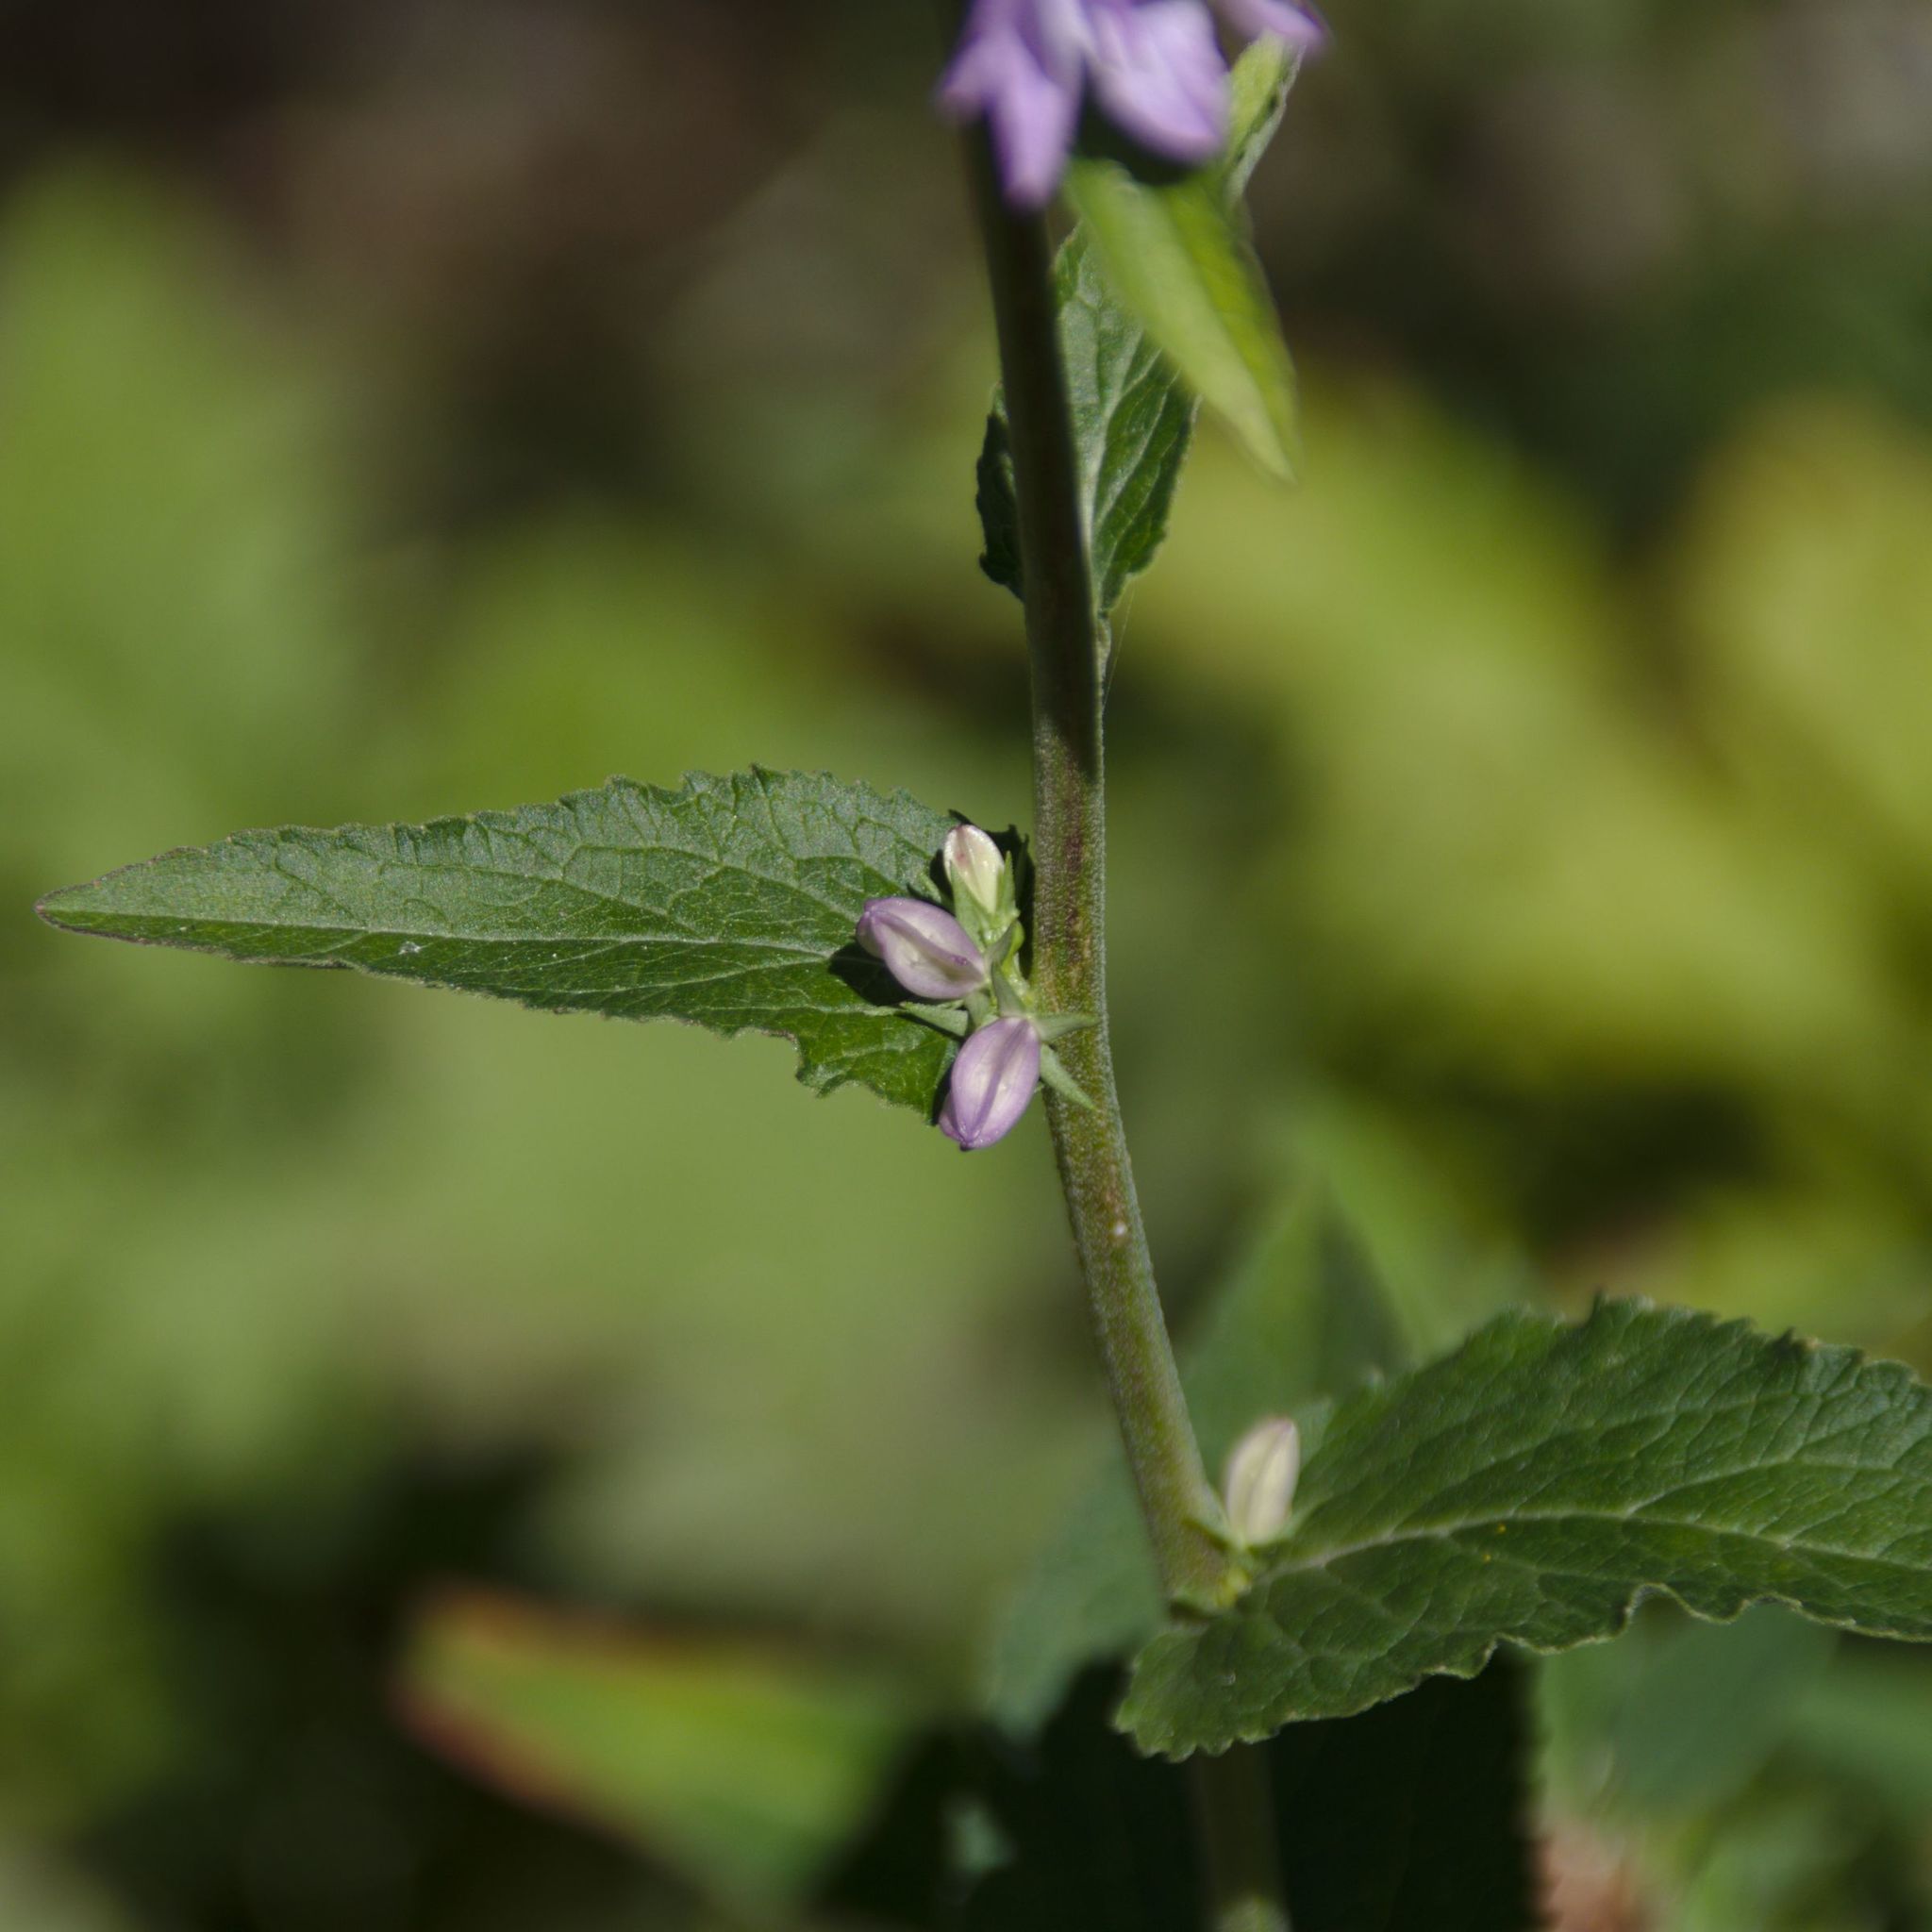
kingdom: Plantae
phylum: Tracheophyta
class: Magnoliopsida
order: Asterales
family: Campanulaceae
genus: Campanula
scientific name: Campanula bononiensis
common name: Pale bellflower
